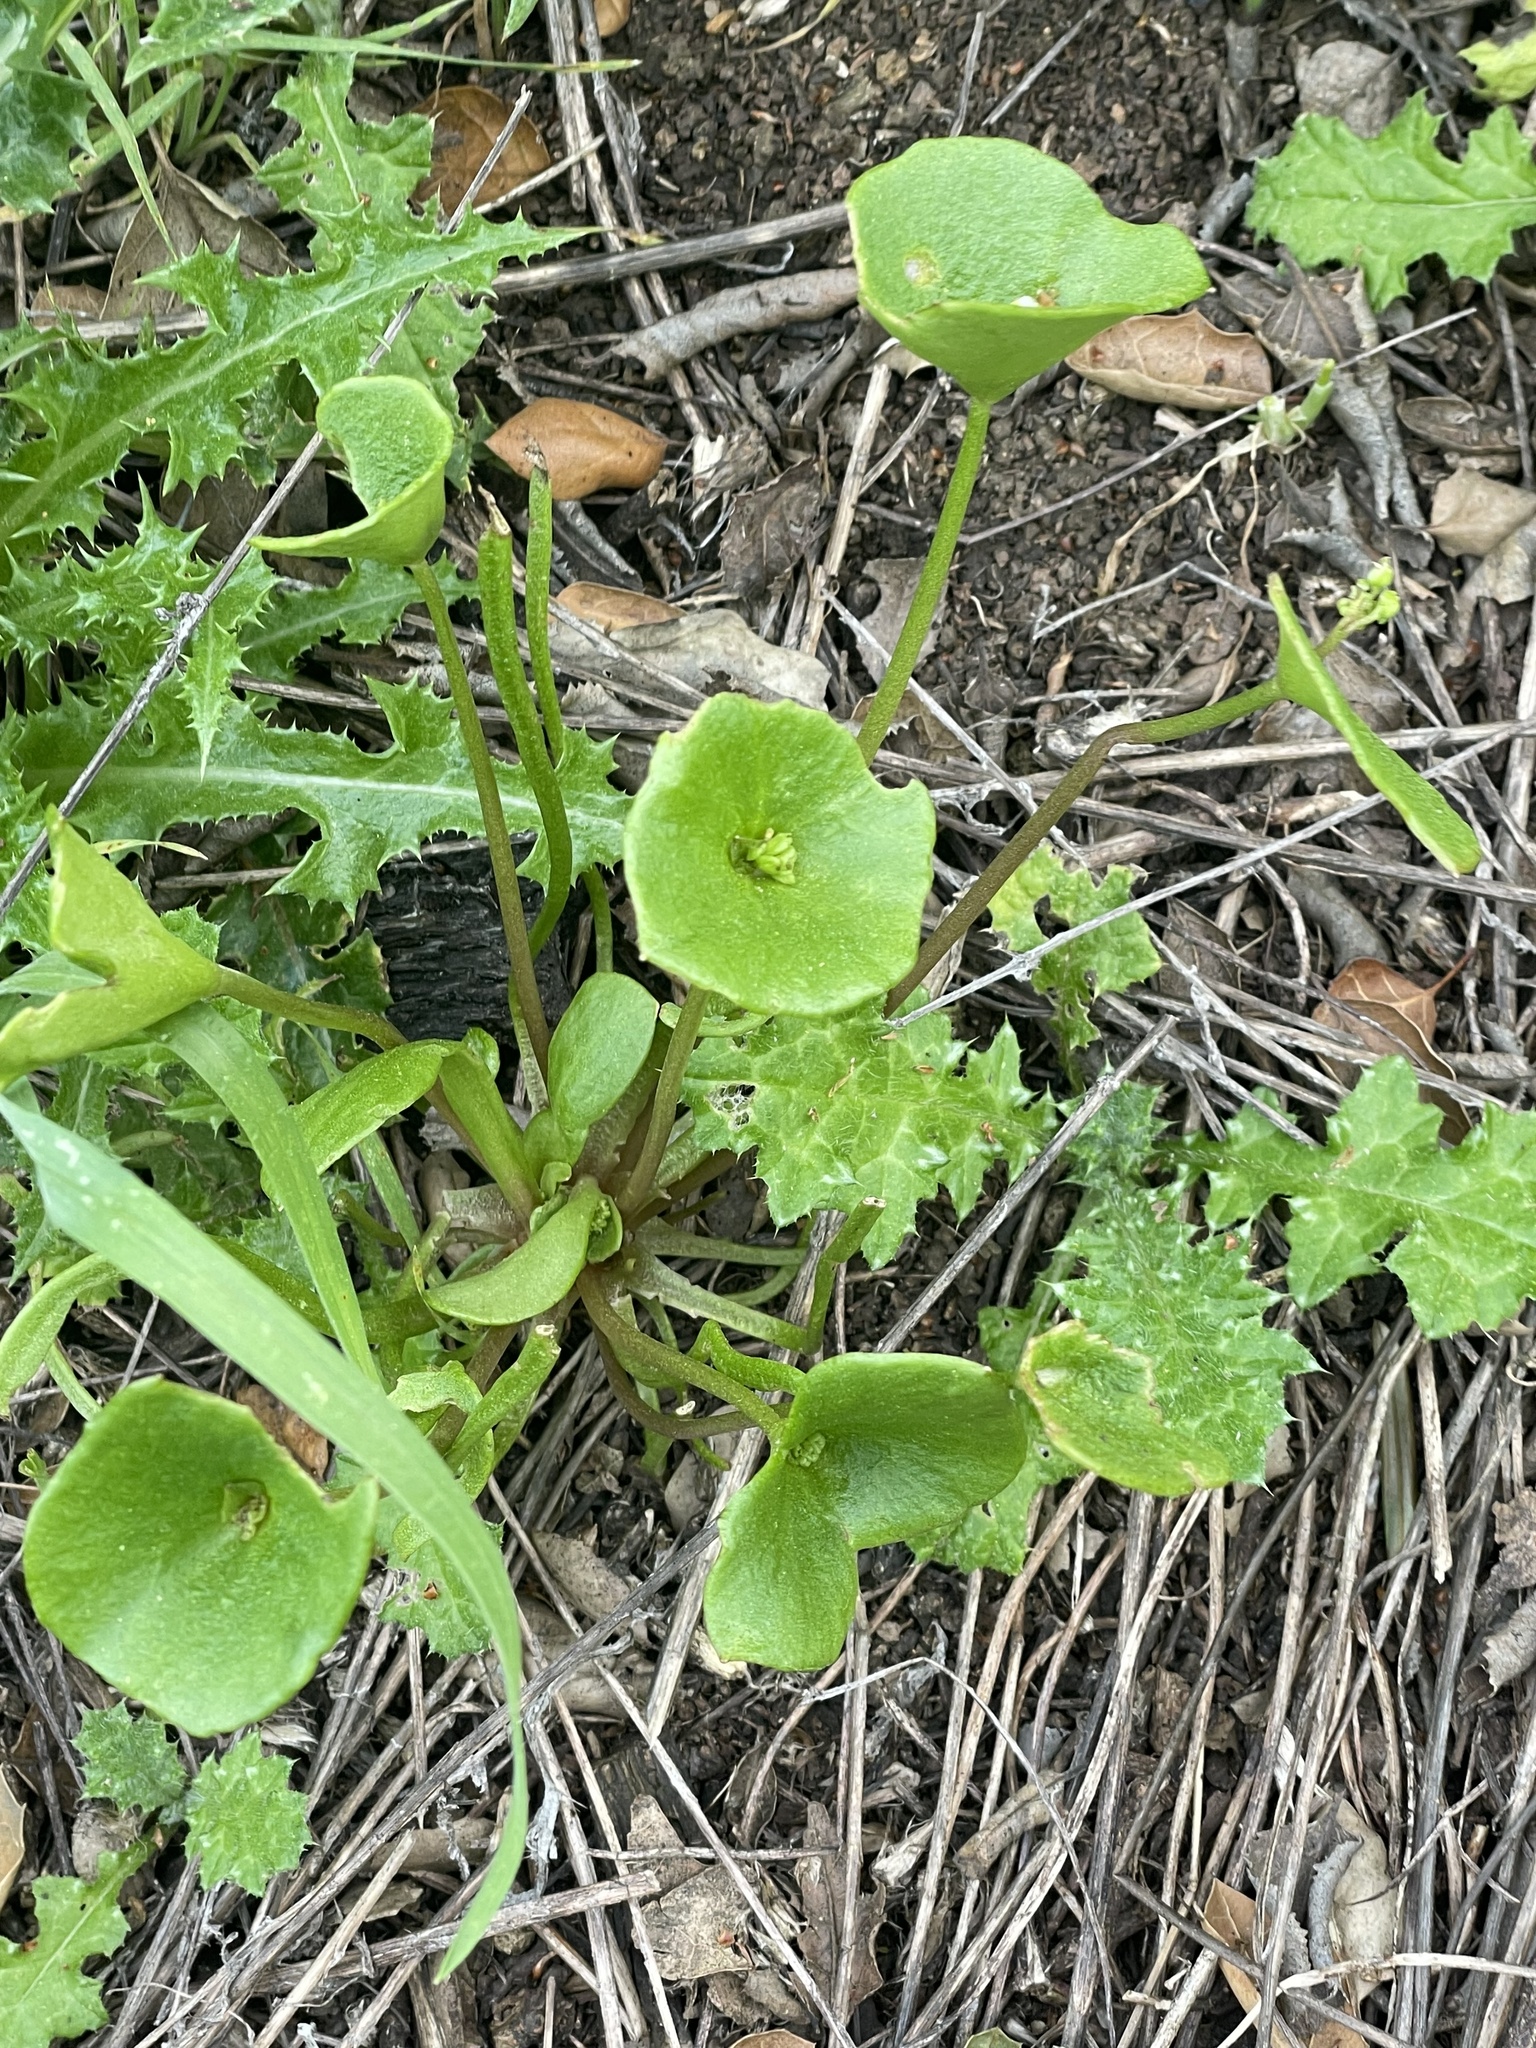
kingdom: Plantae
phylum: Tracheophyta
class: Magnoliopsida
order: Caryophyllales
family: Montiaceae
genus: Claytonia
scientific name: Claytonia perfoliata
